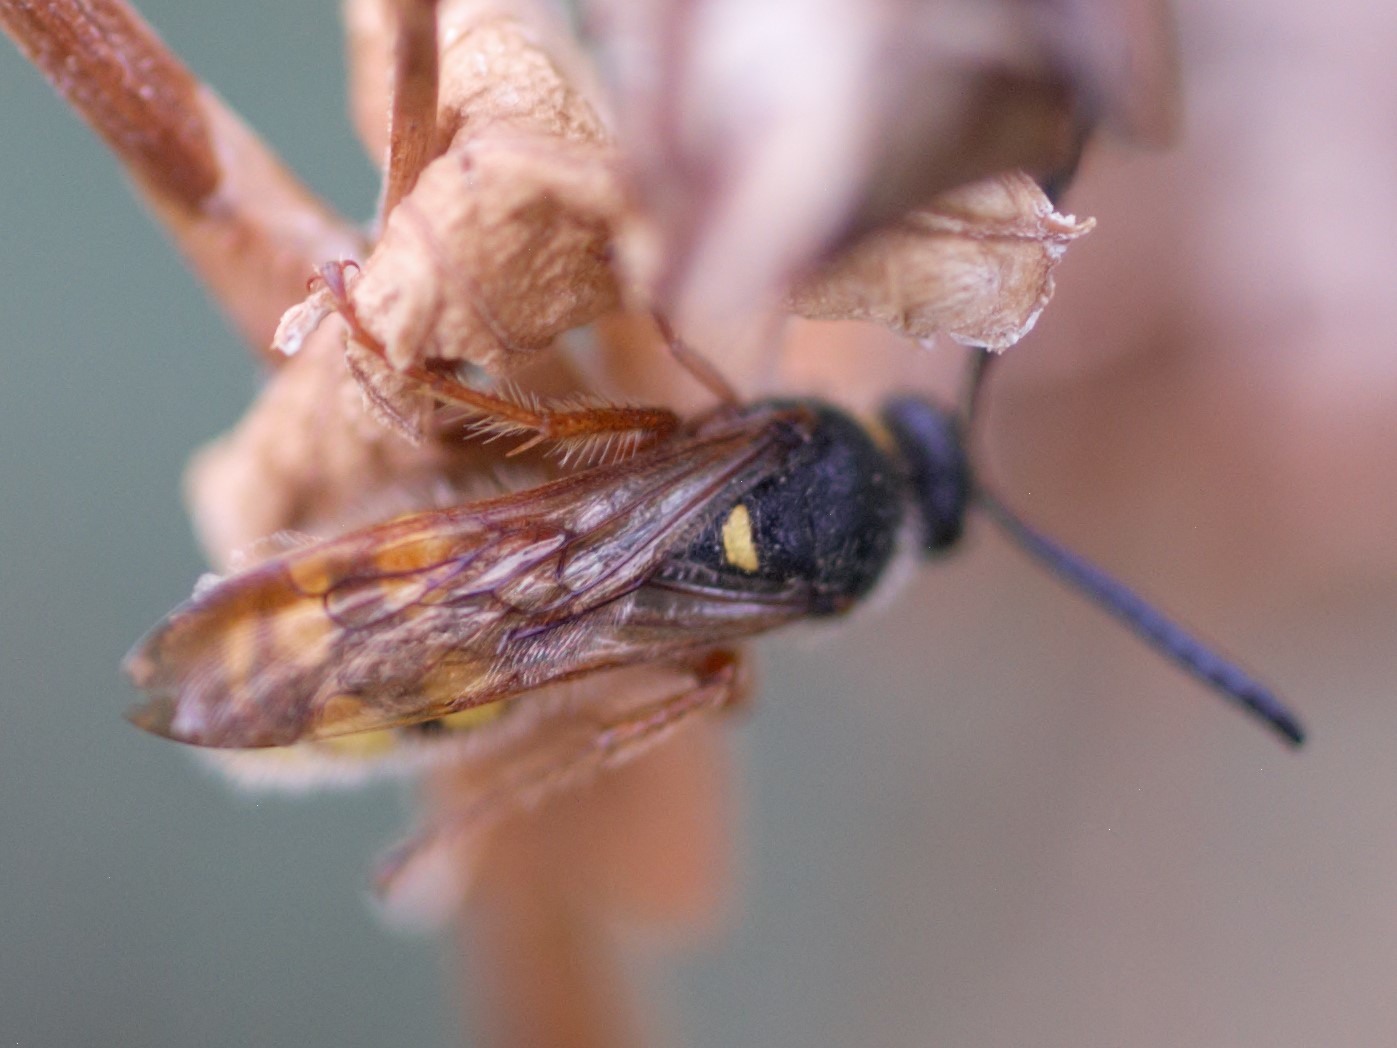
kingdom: Animalia
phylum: Arthropoda
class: Insecta
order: Hymenoptera
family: Scoliidae
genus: Scolia
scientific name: Scolia nobilitata
